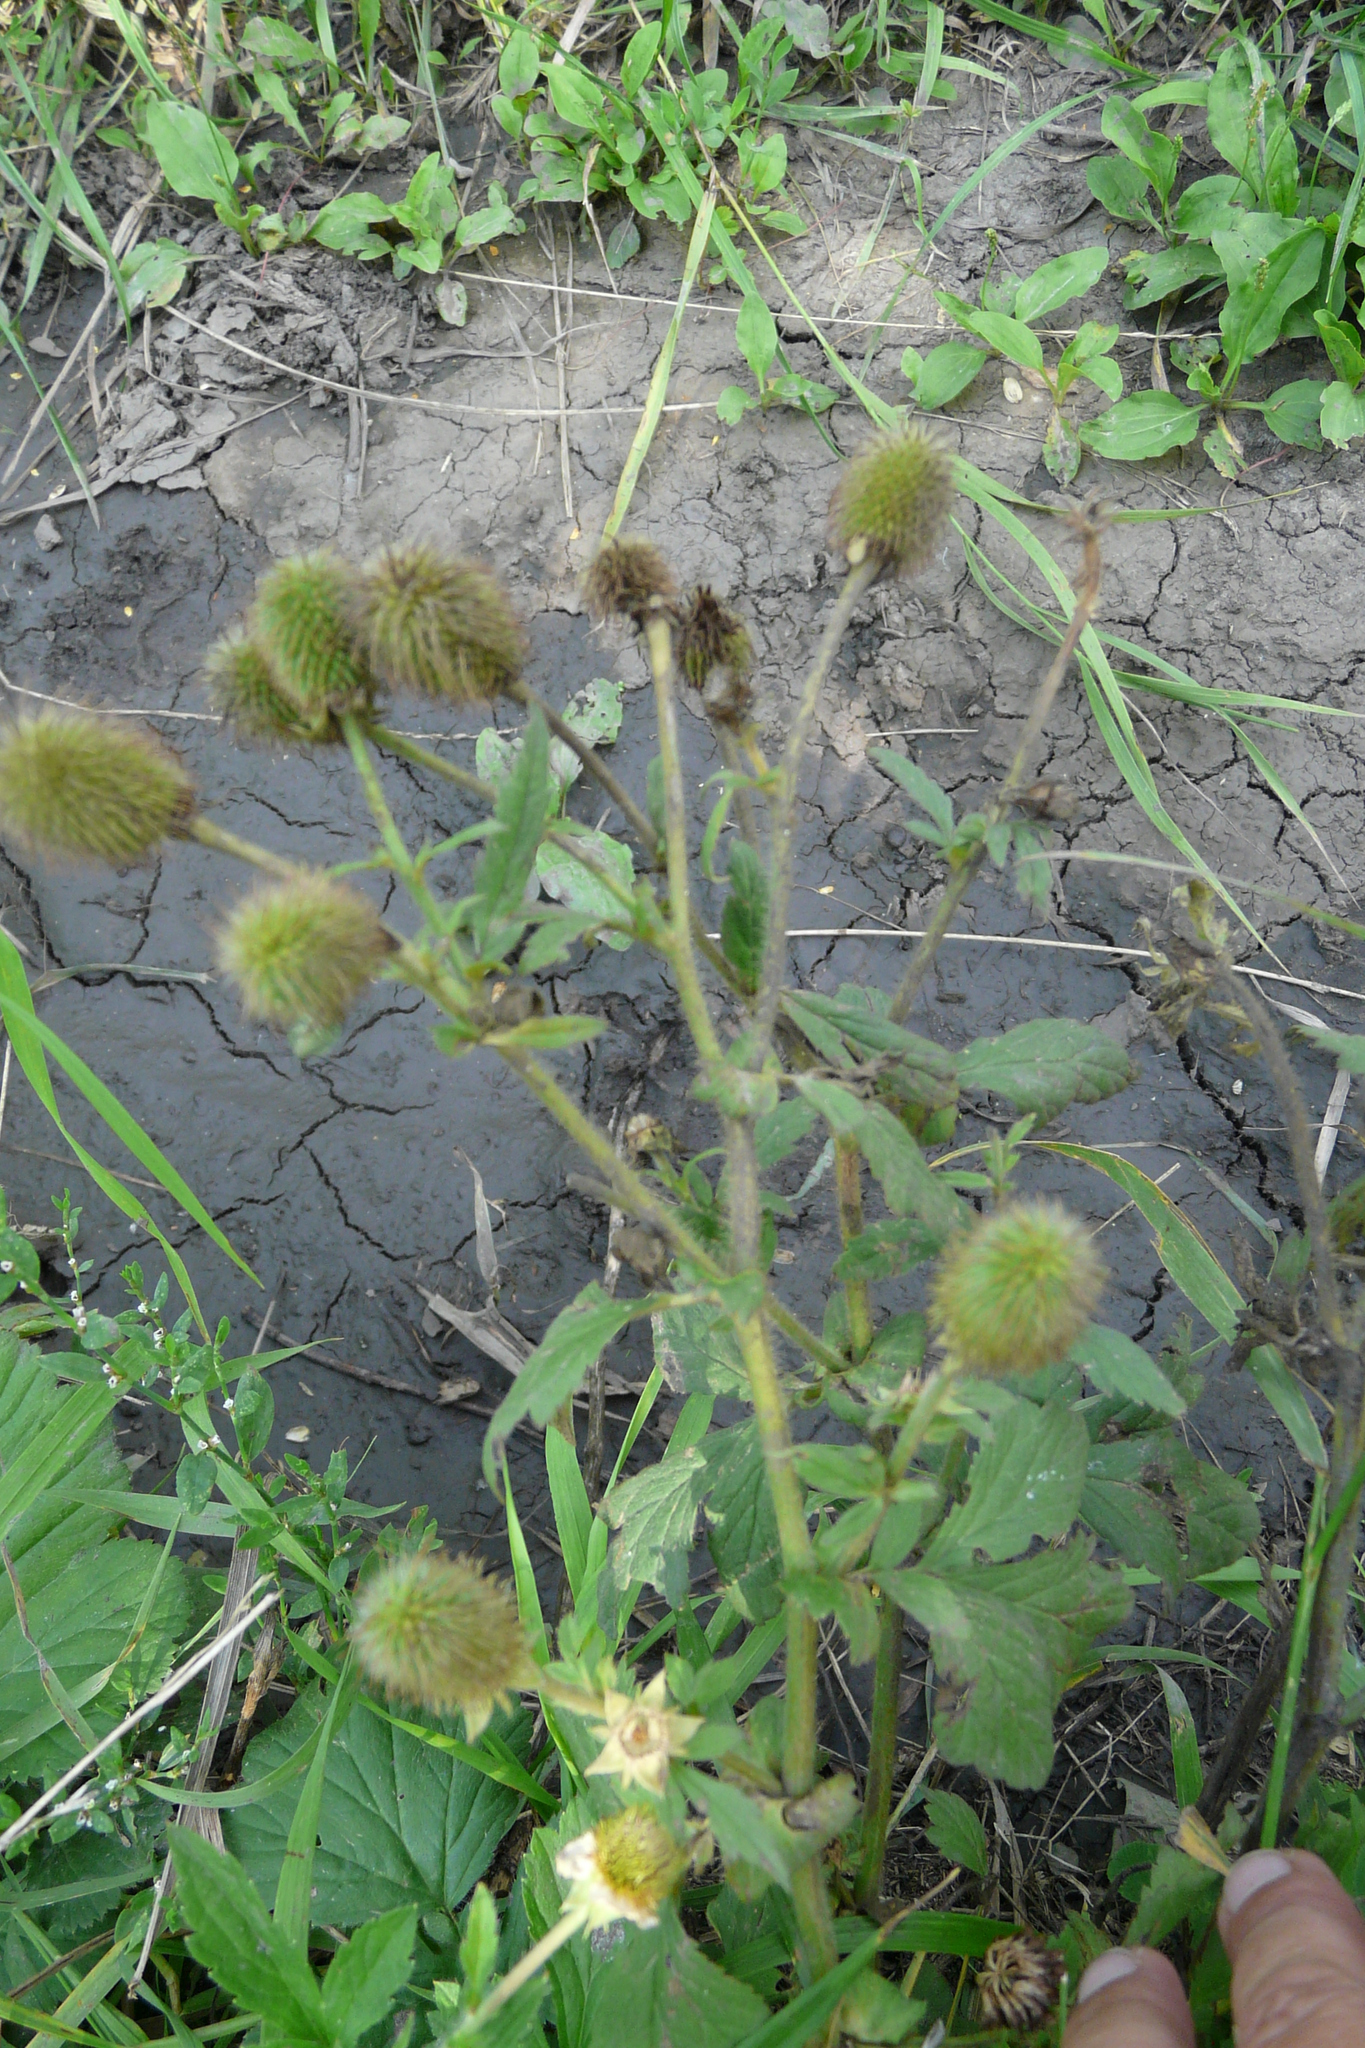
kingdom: Plantae
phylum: Tracheophyta
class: Magnoliopsida
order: Rosales
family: Rosaceae
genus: Geum
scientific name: Geum aleppicum
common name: Yellow avens
